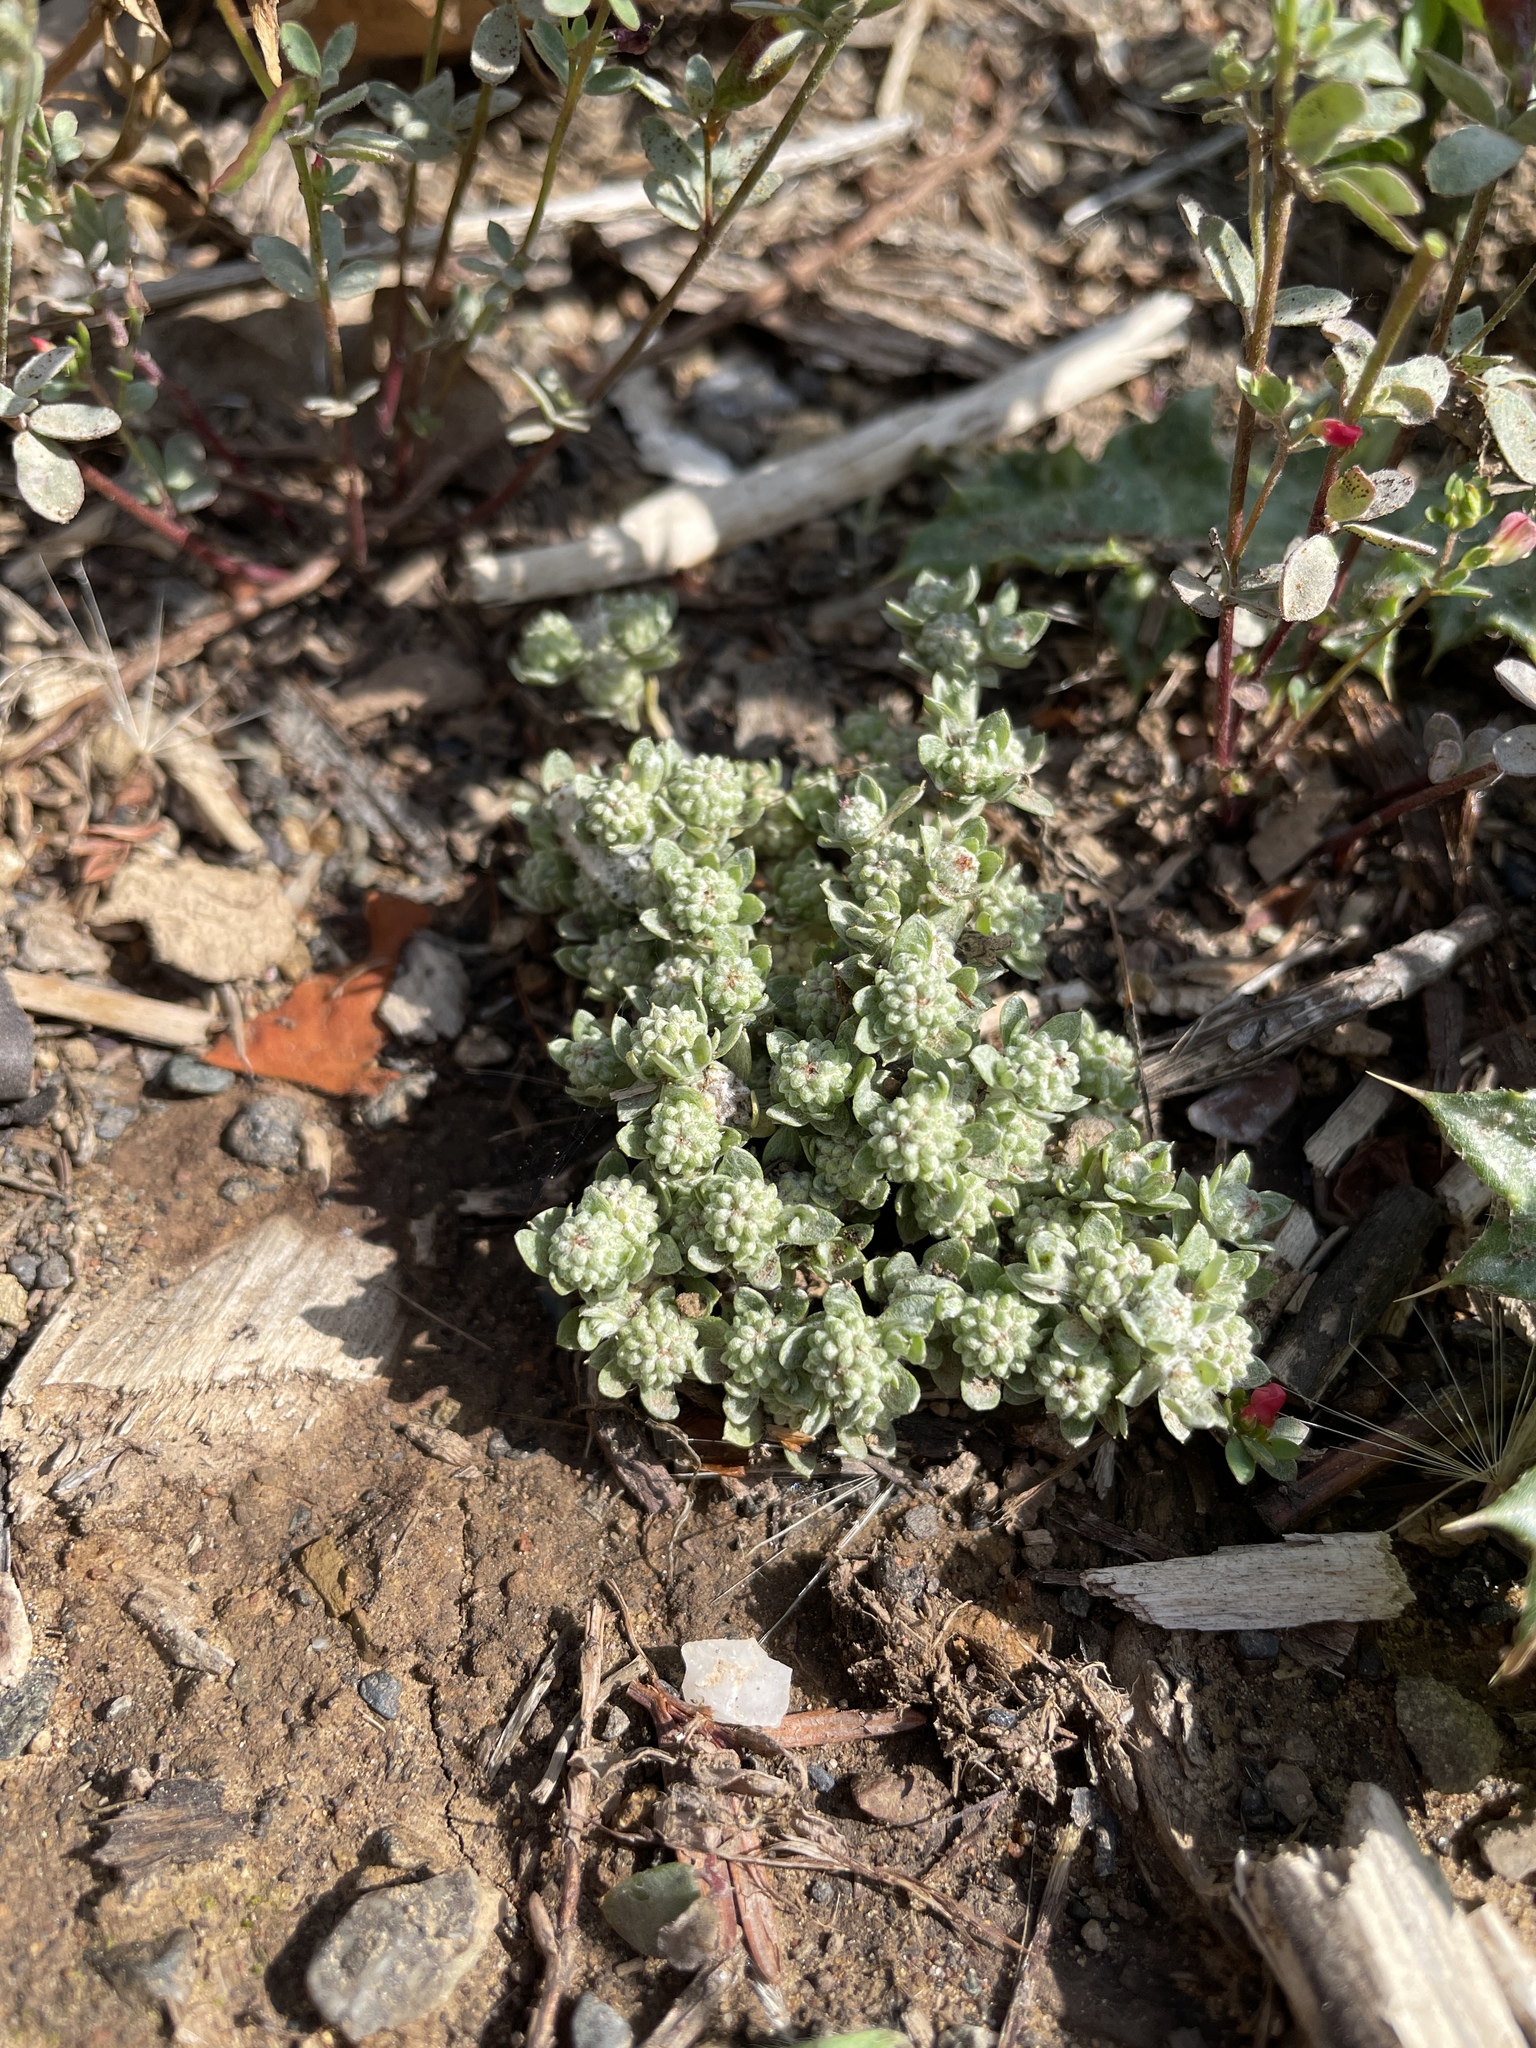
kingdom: Plantae
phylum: Tracheophyta
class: Magnoliopsida
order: Asterales
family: Asteraceae
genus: Psilocarphus
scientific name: Psilocarphus tenellus
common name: Slender woolly-marbles
